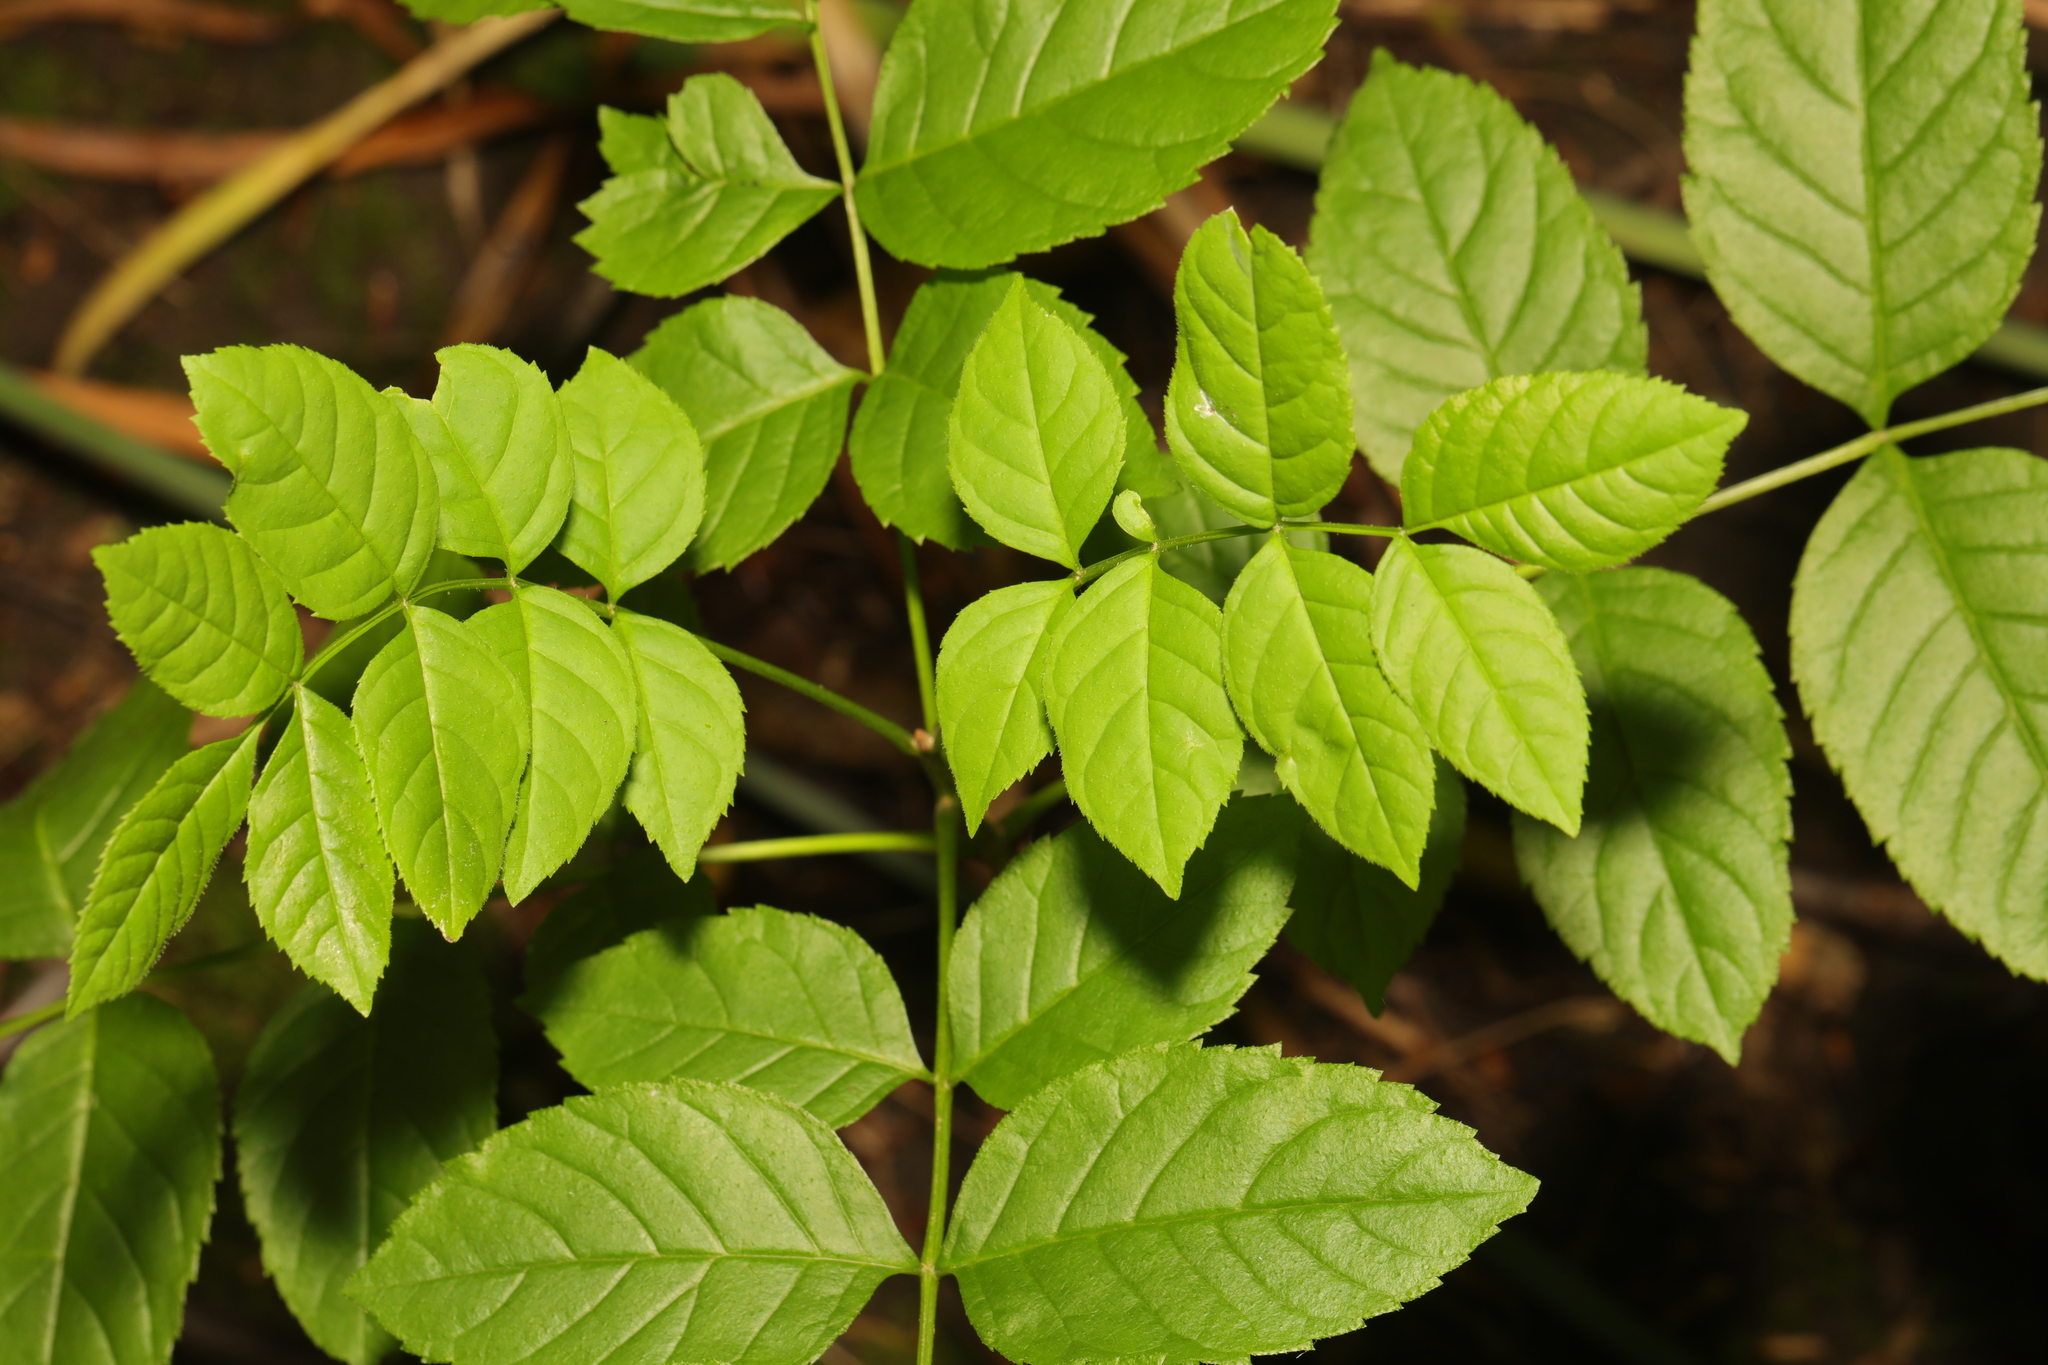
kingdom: Plantae
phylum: Tracheophyta
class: Magnoliopsida
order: Lamiales
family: Oleaceae
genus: Fraxinus
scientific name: Fraxinus excelsior
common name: European ash
